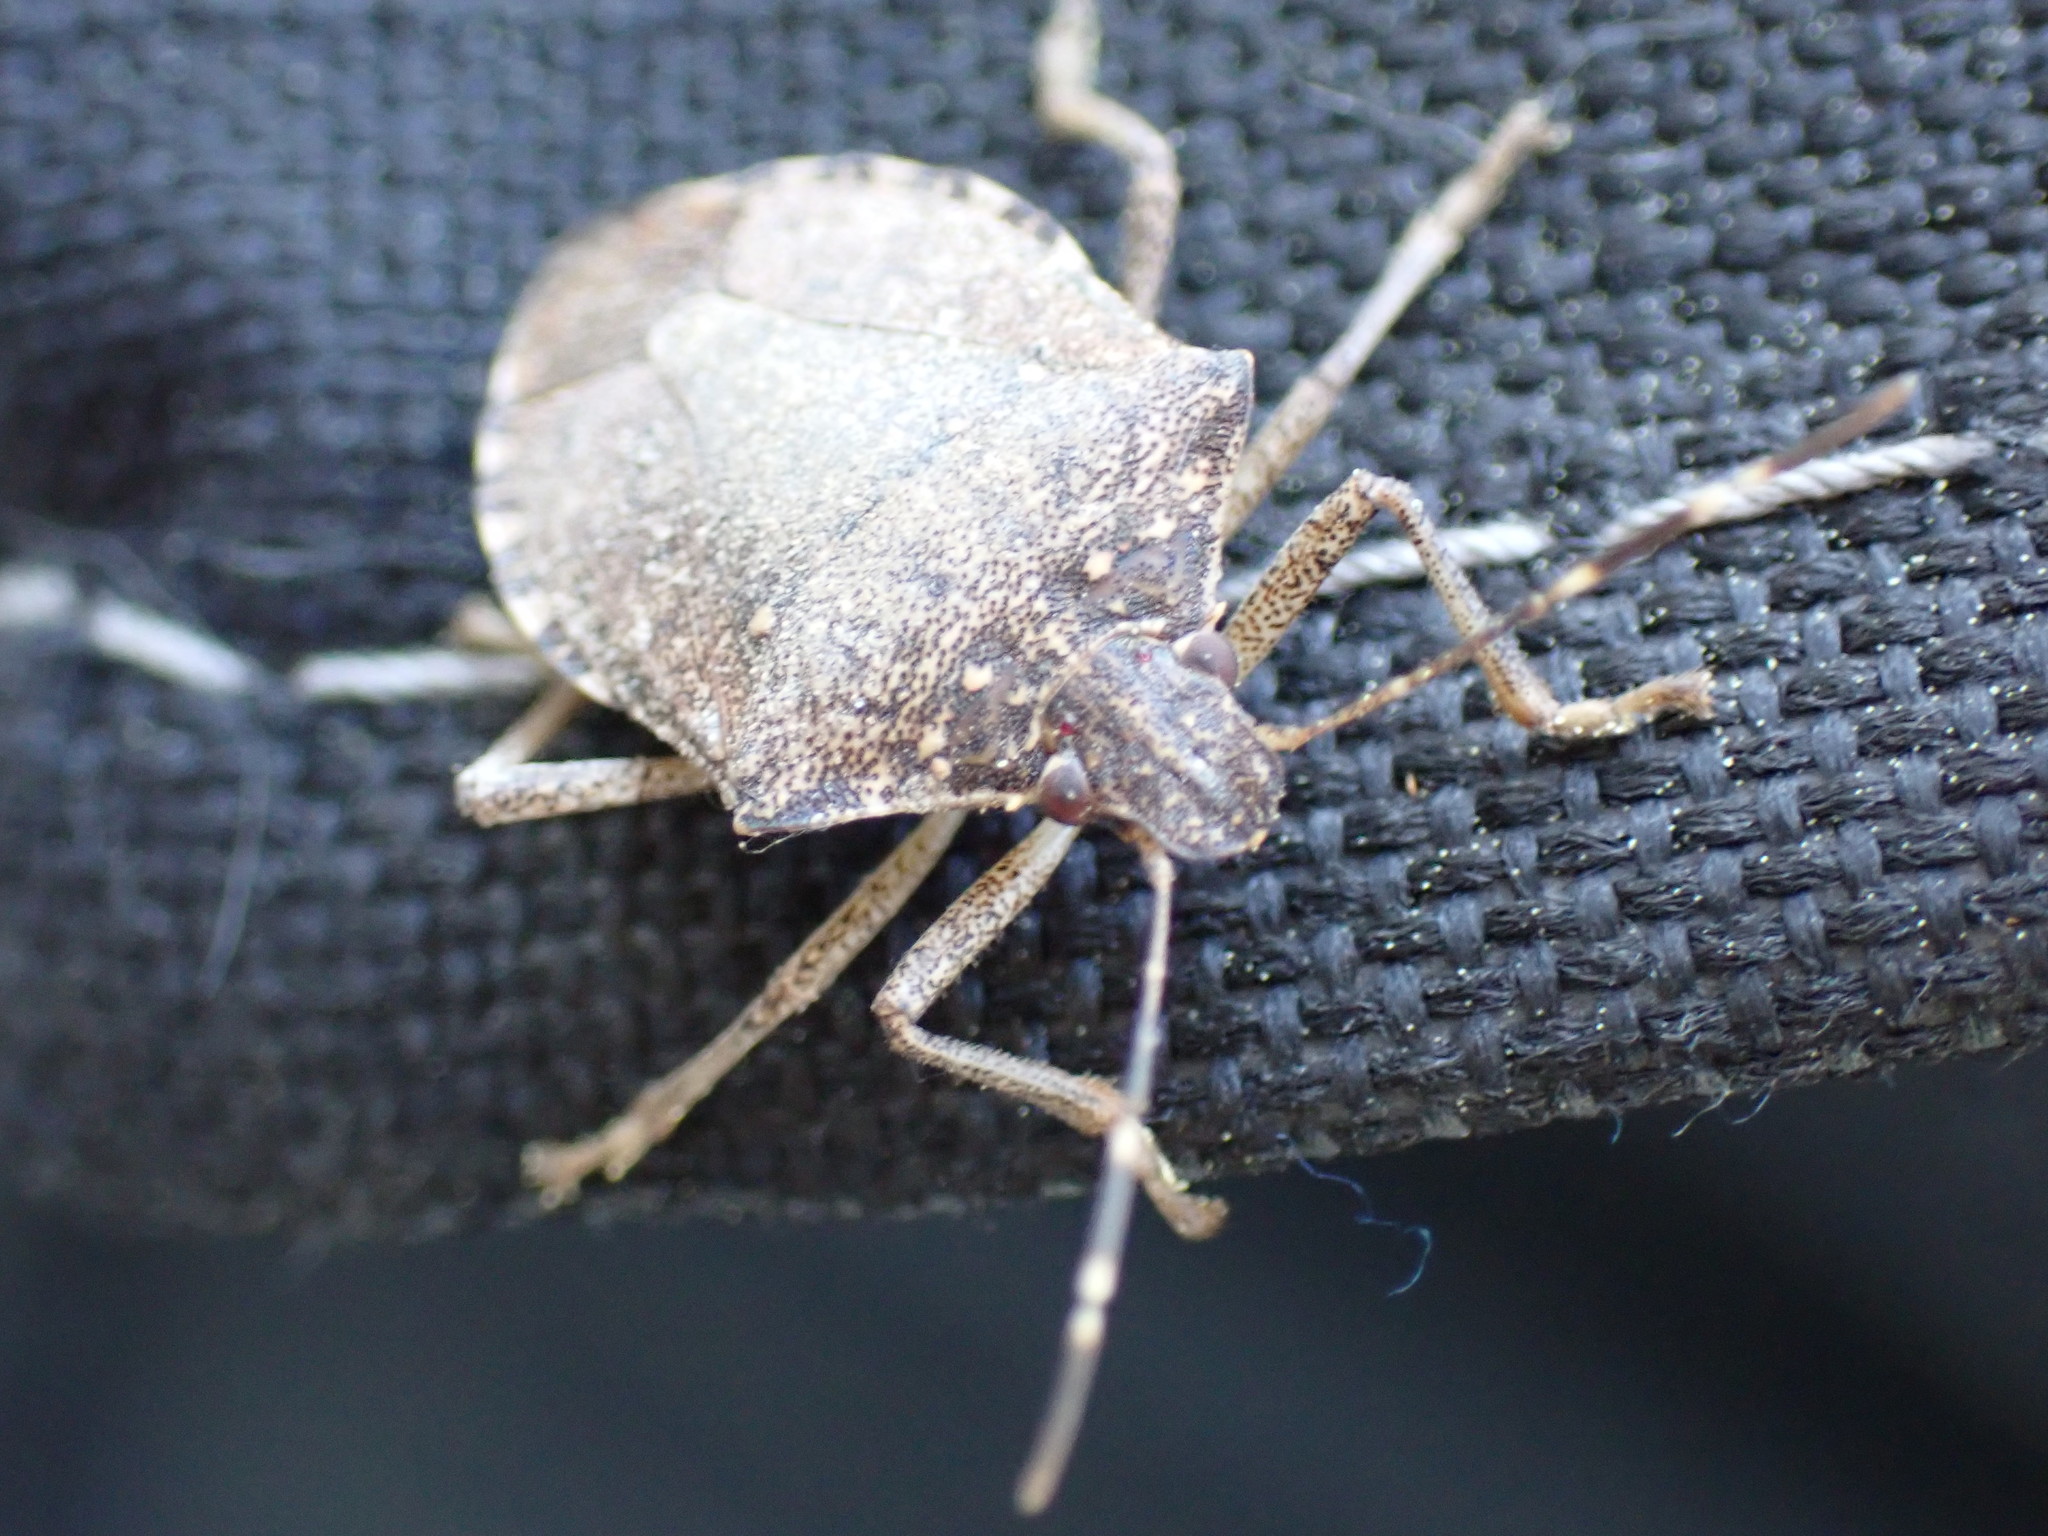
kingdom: Animalia
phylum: Arthropoda
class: Insecta
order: Hemiptera
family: Pentatomidae
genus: Halyomorpha
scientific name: Halyomorpha halys
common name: Brown marmorated stink bug
